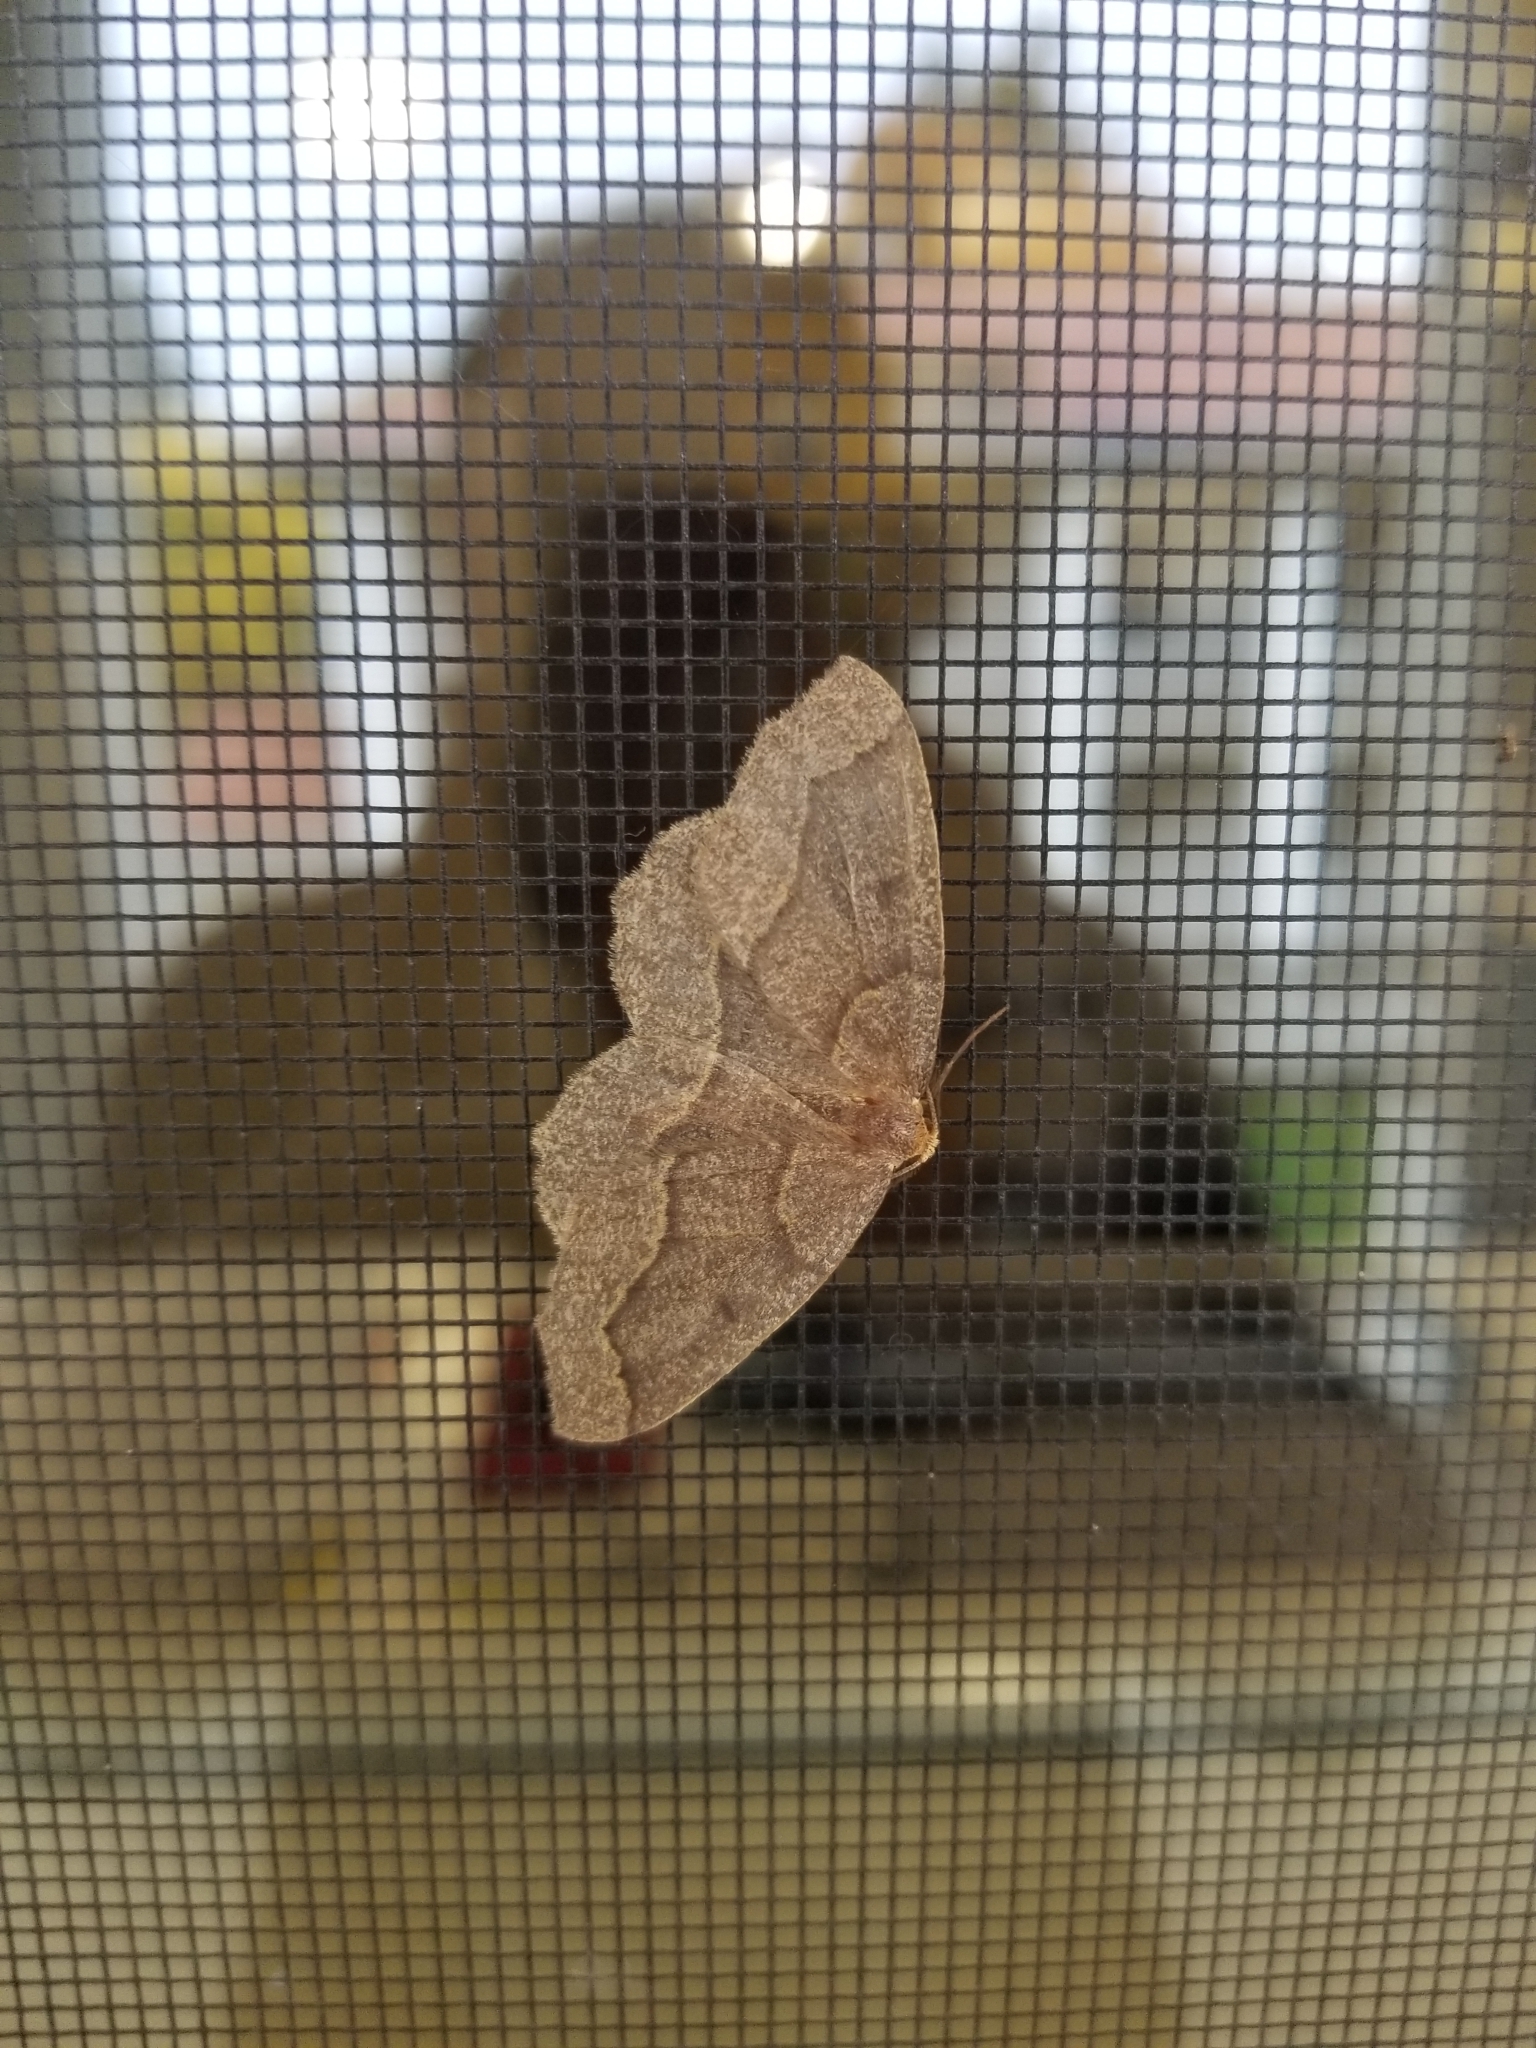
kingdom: Animalia
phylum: Arthropoda
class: Insecta
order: Lepidoptera
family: Geometridae
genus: Lambdina
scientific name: Lambdina fiscellaria
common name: Hemlock looper
